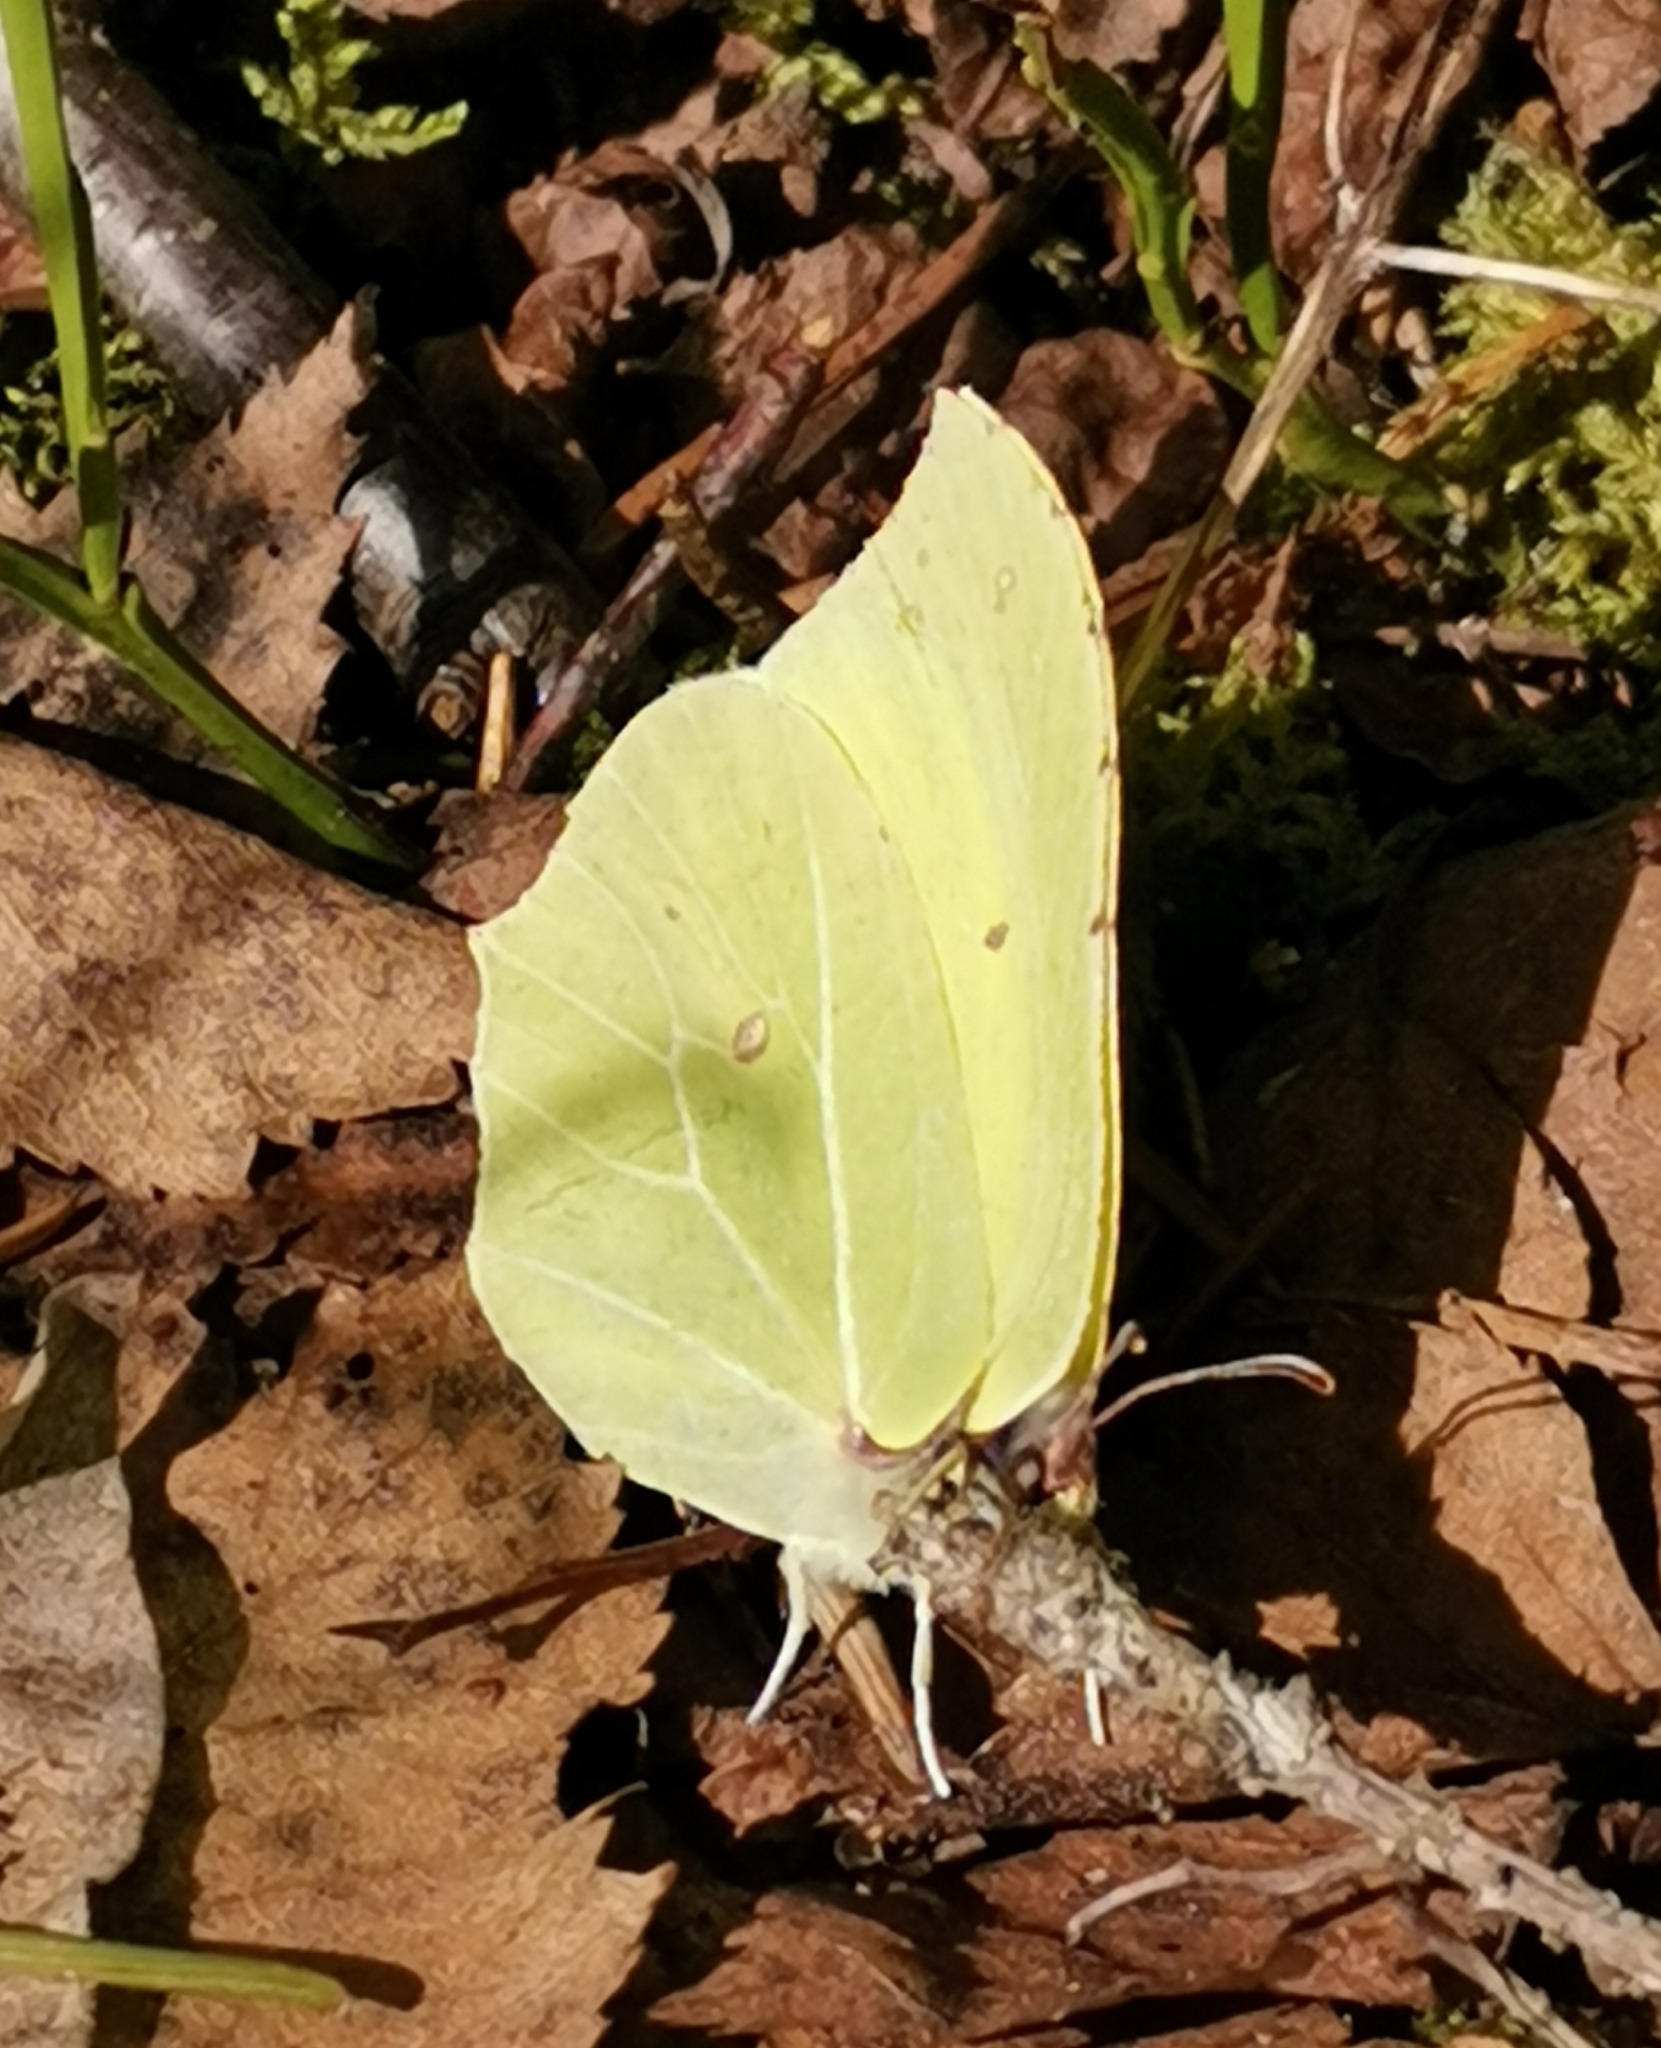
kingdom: Animalia
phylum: Arthropoda
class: Insecta
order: Lepidoptera
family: Pieridae
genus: Gonepteryx
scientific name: Gonepteryx rhamni
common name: Brimstone
